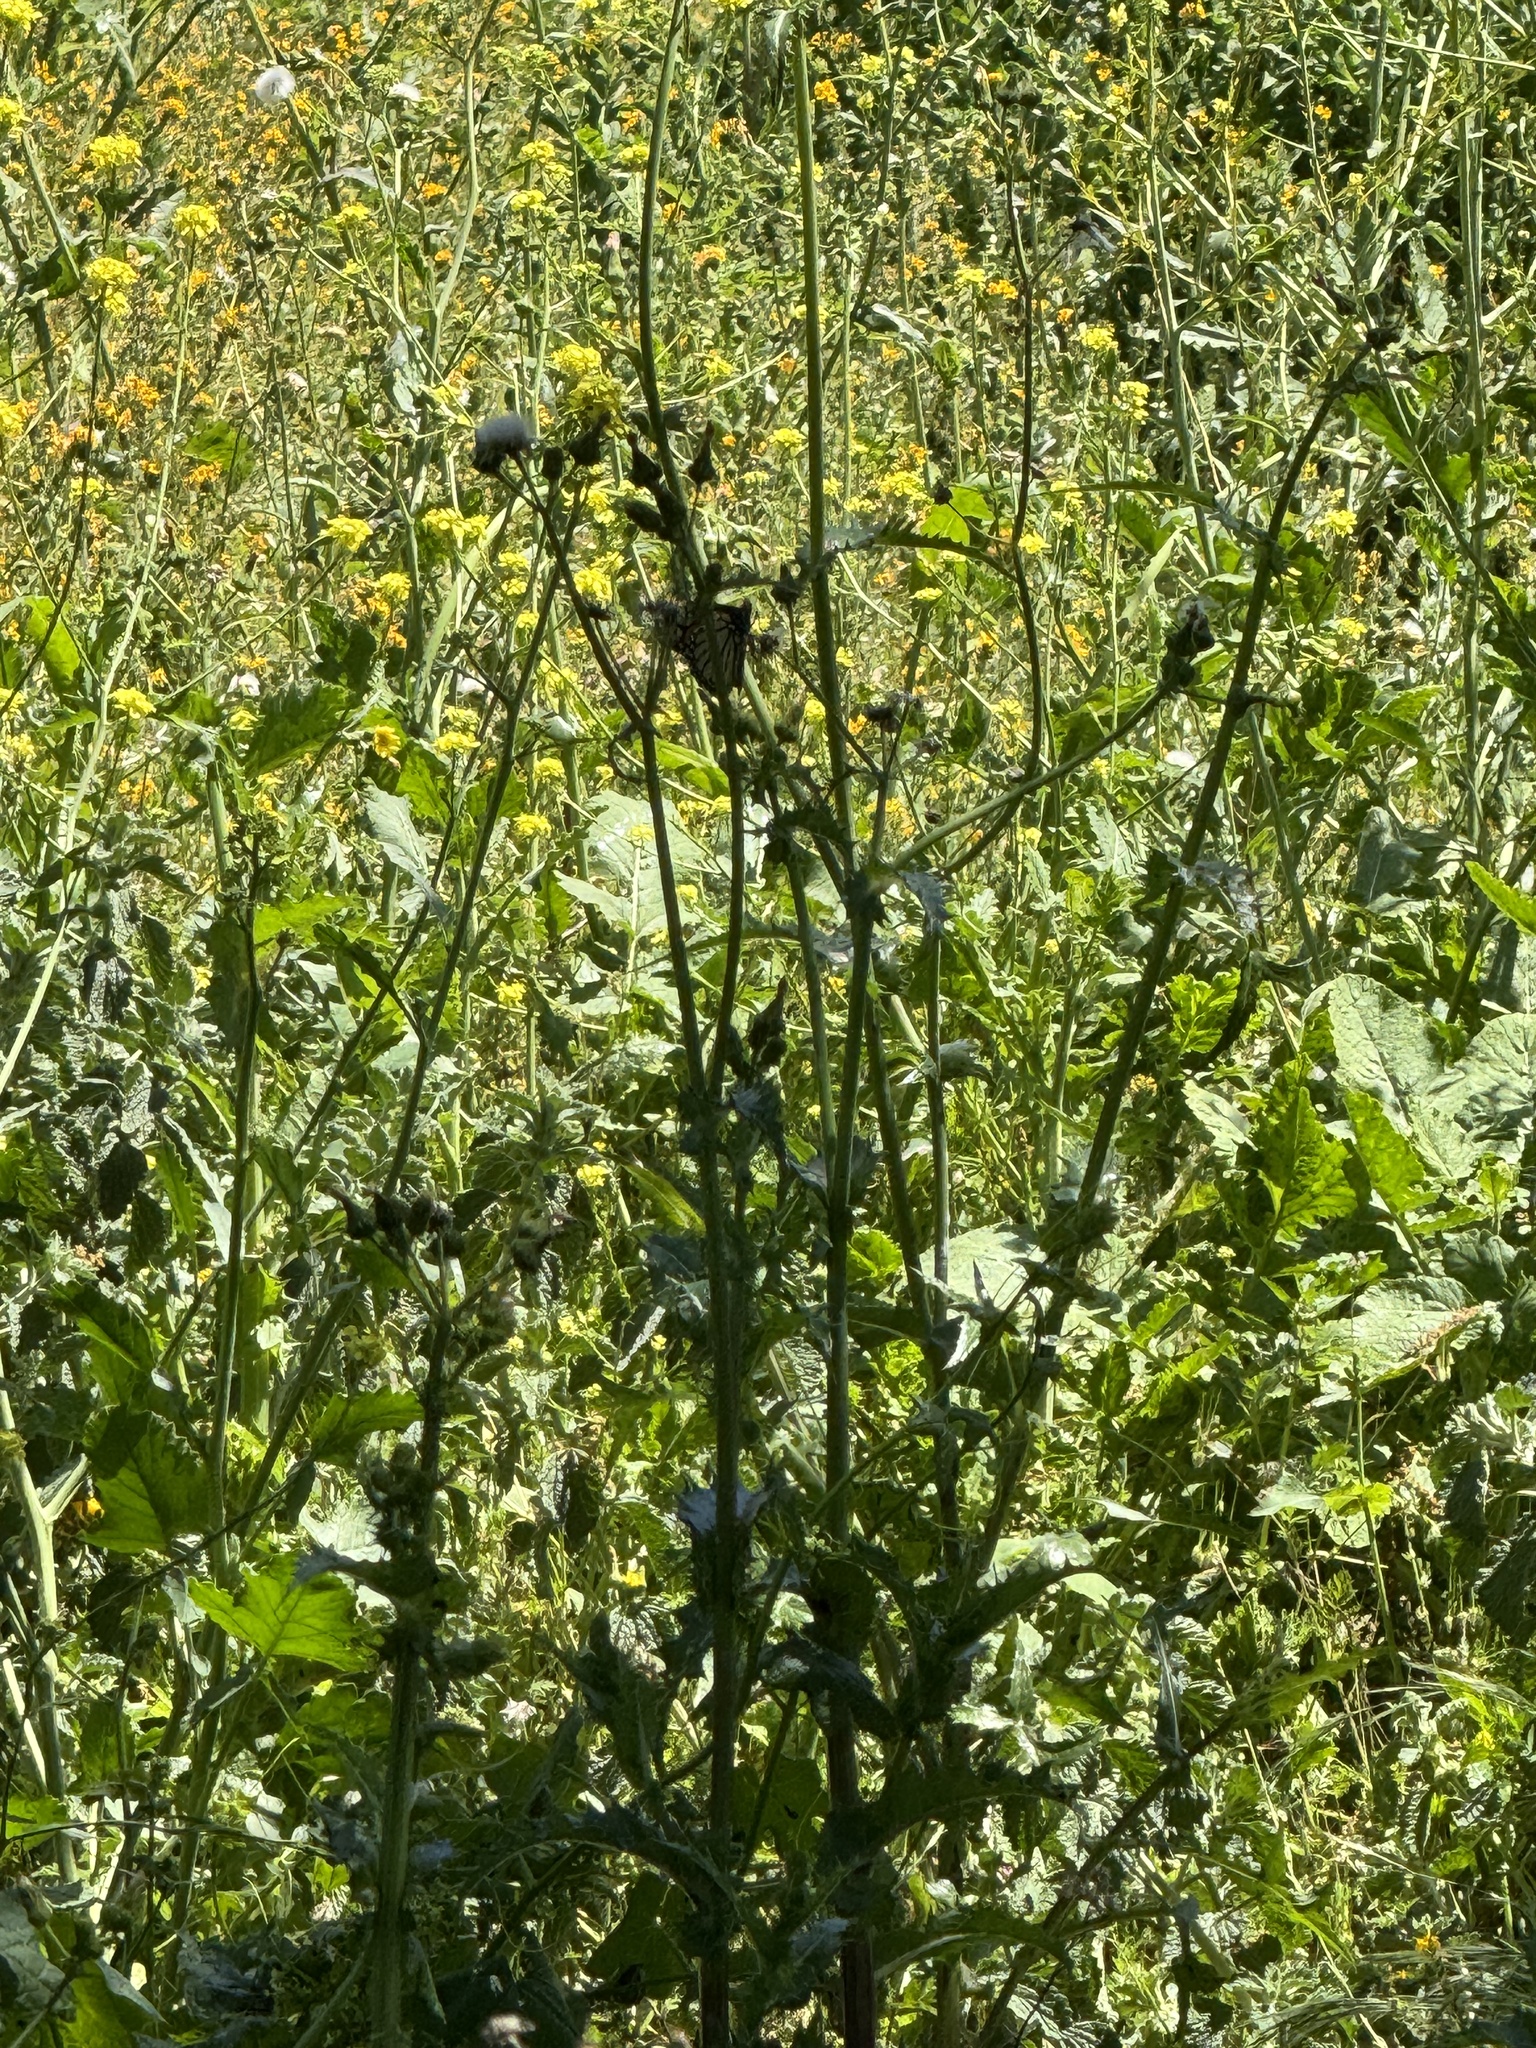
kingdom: Animalia
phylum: Arthropoda
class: Insecta
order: Lepidoptera
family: Nymphalidae
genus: Danaus
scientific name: Danaus plexippus
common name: Monarch
